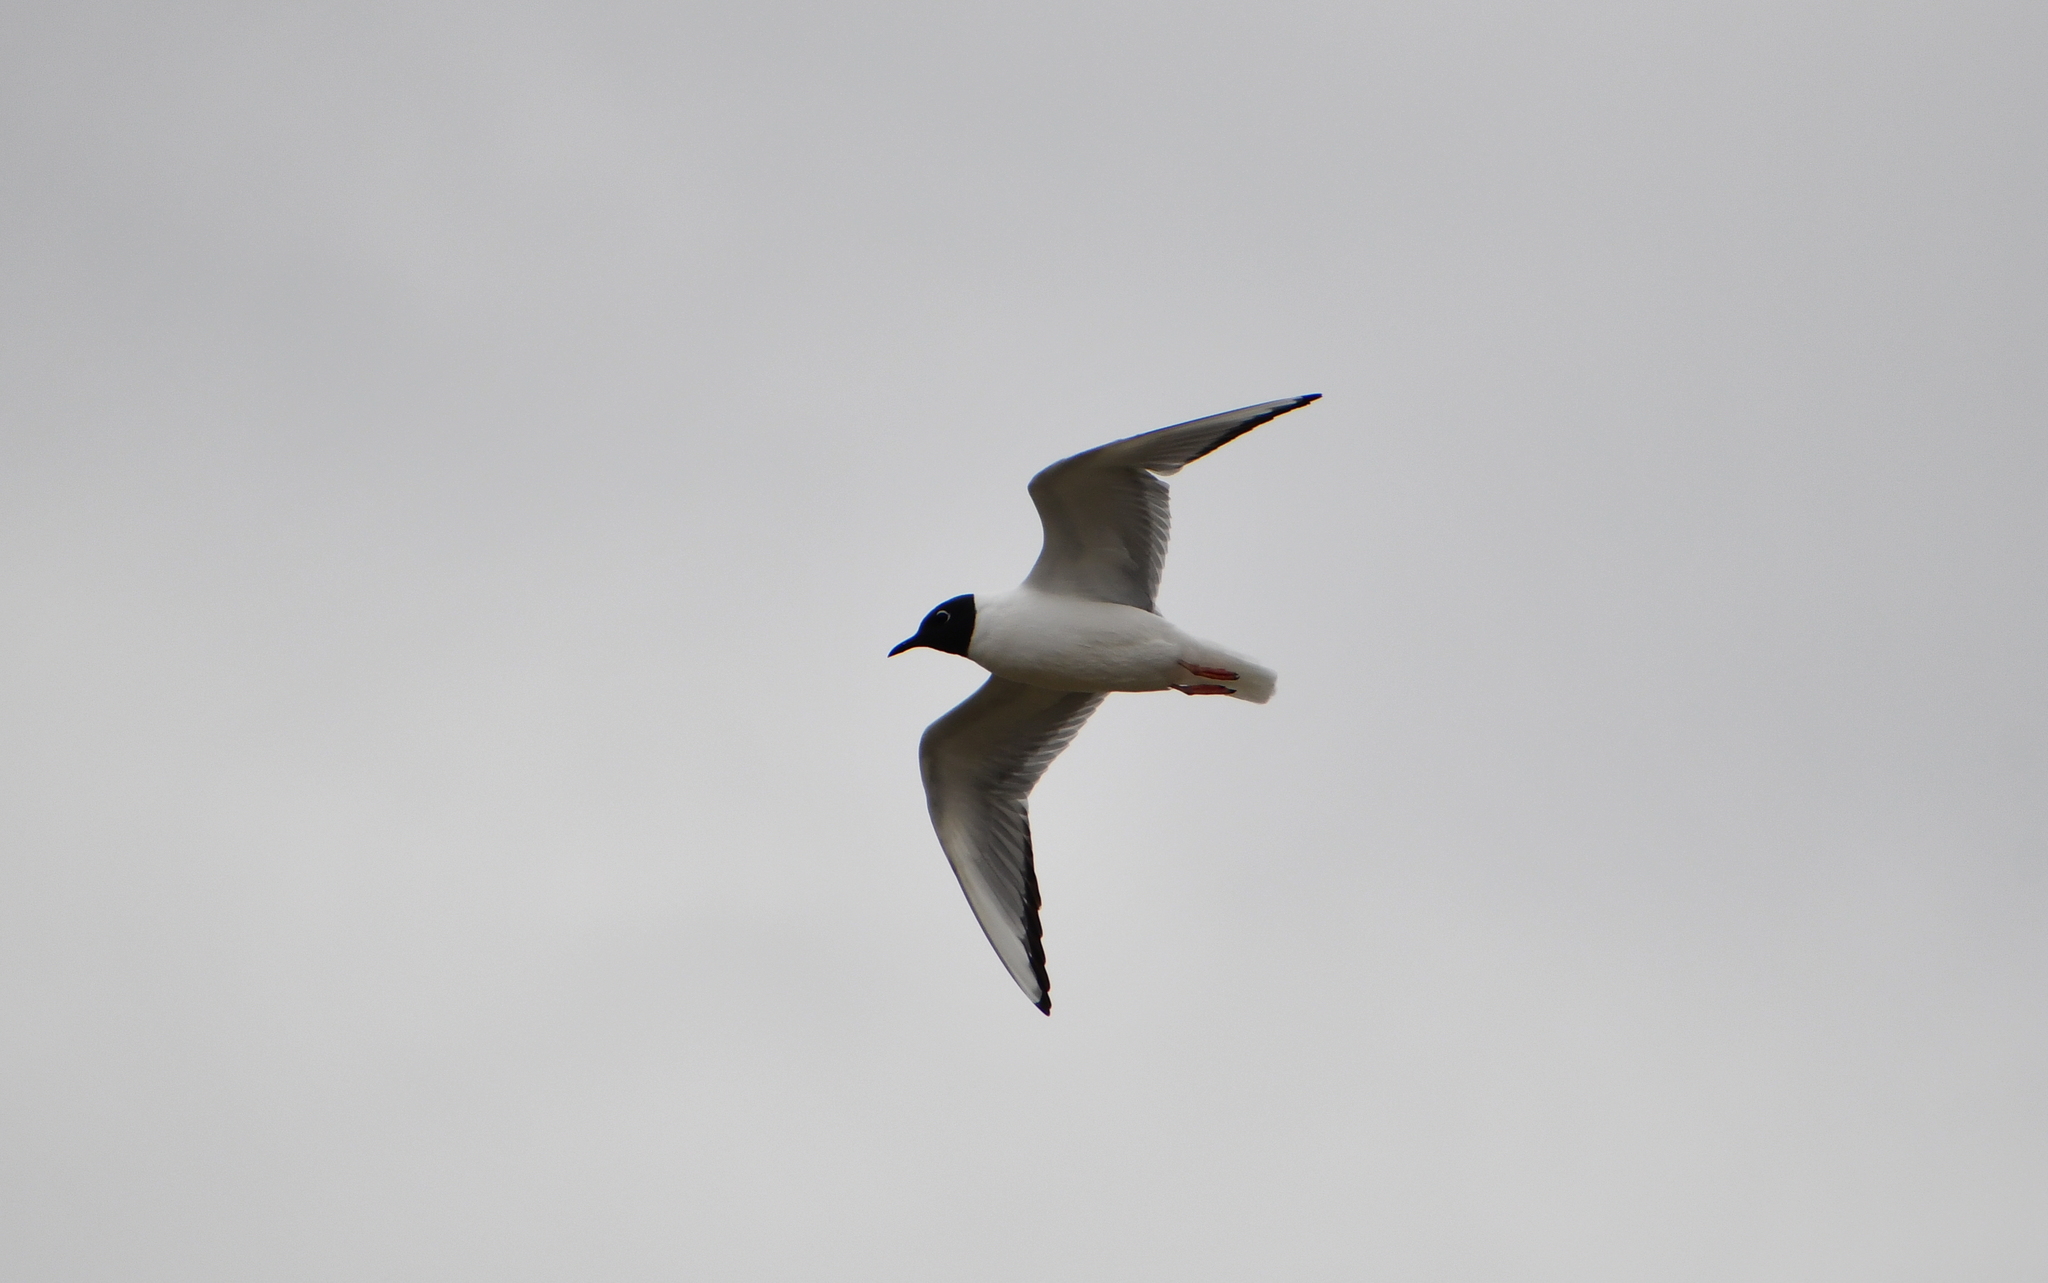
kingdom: Animalia
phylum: Chordata
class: Aves
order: Charadriiformes
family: Laridae
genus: Chroicocephalus
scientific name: Chroicocephalus philadelphia
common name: Bonaparte's gull
